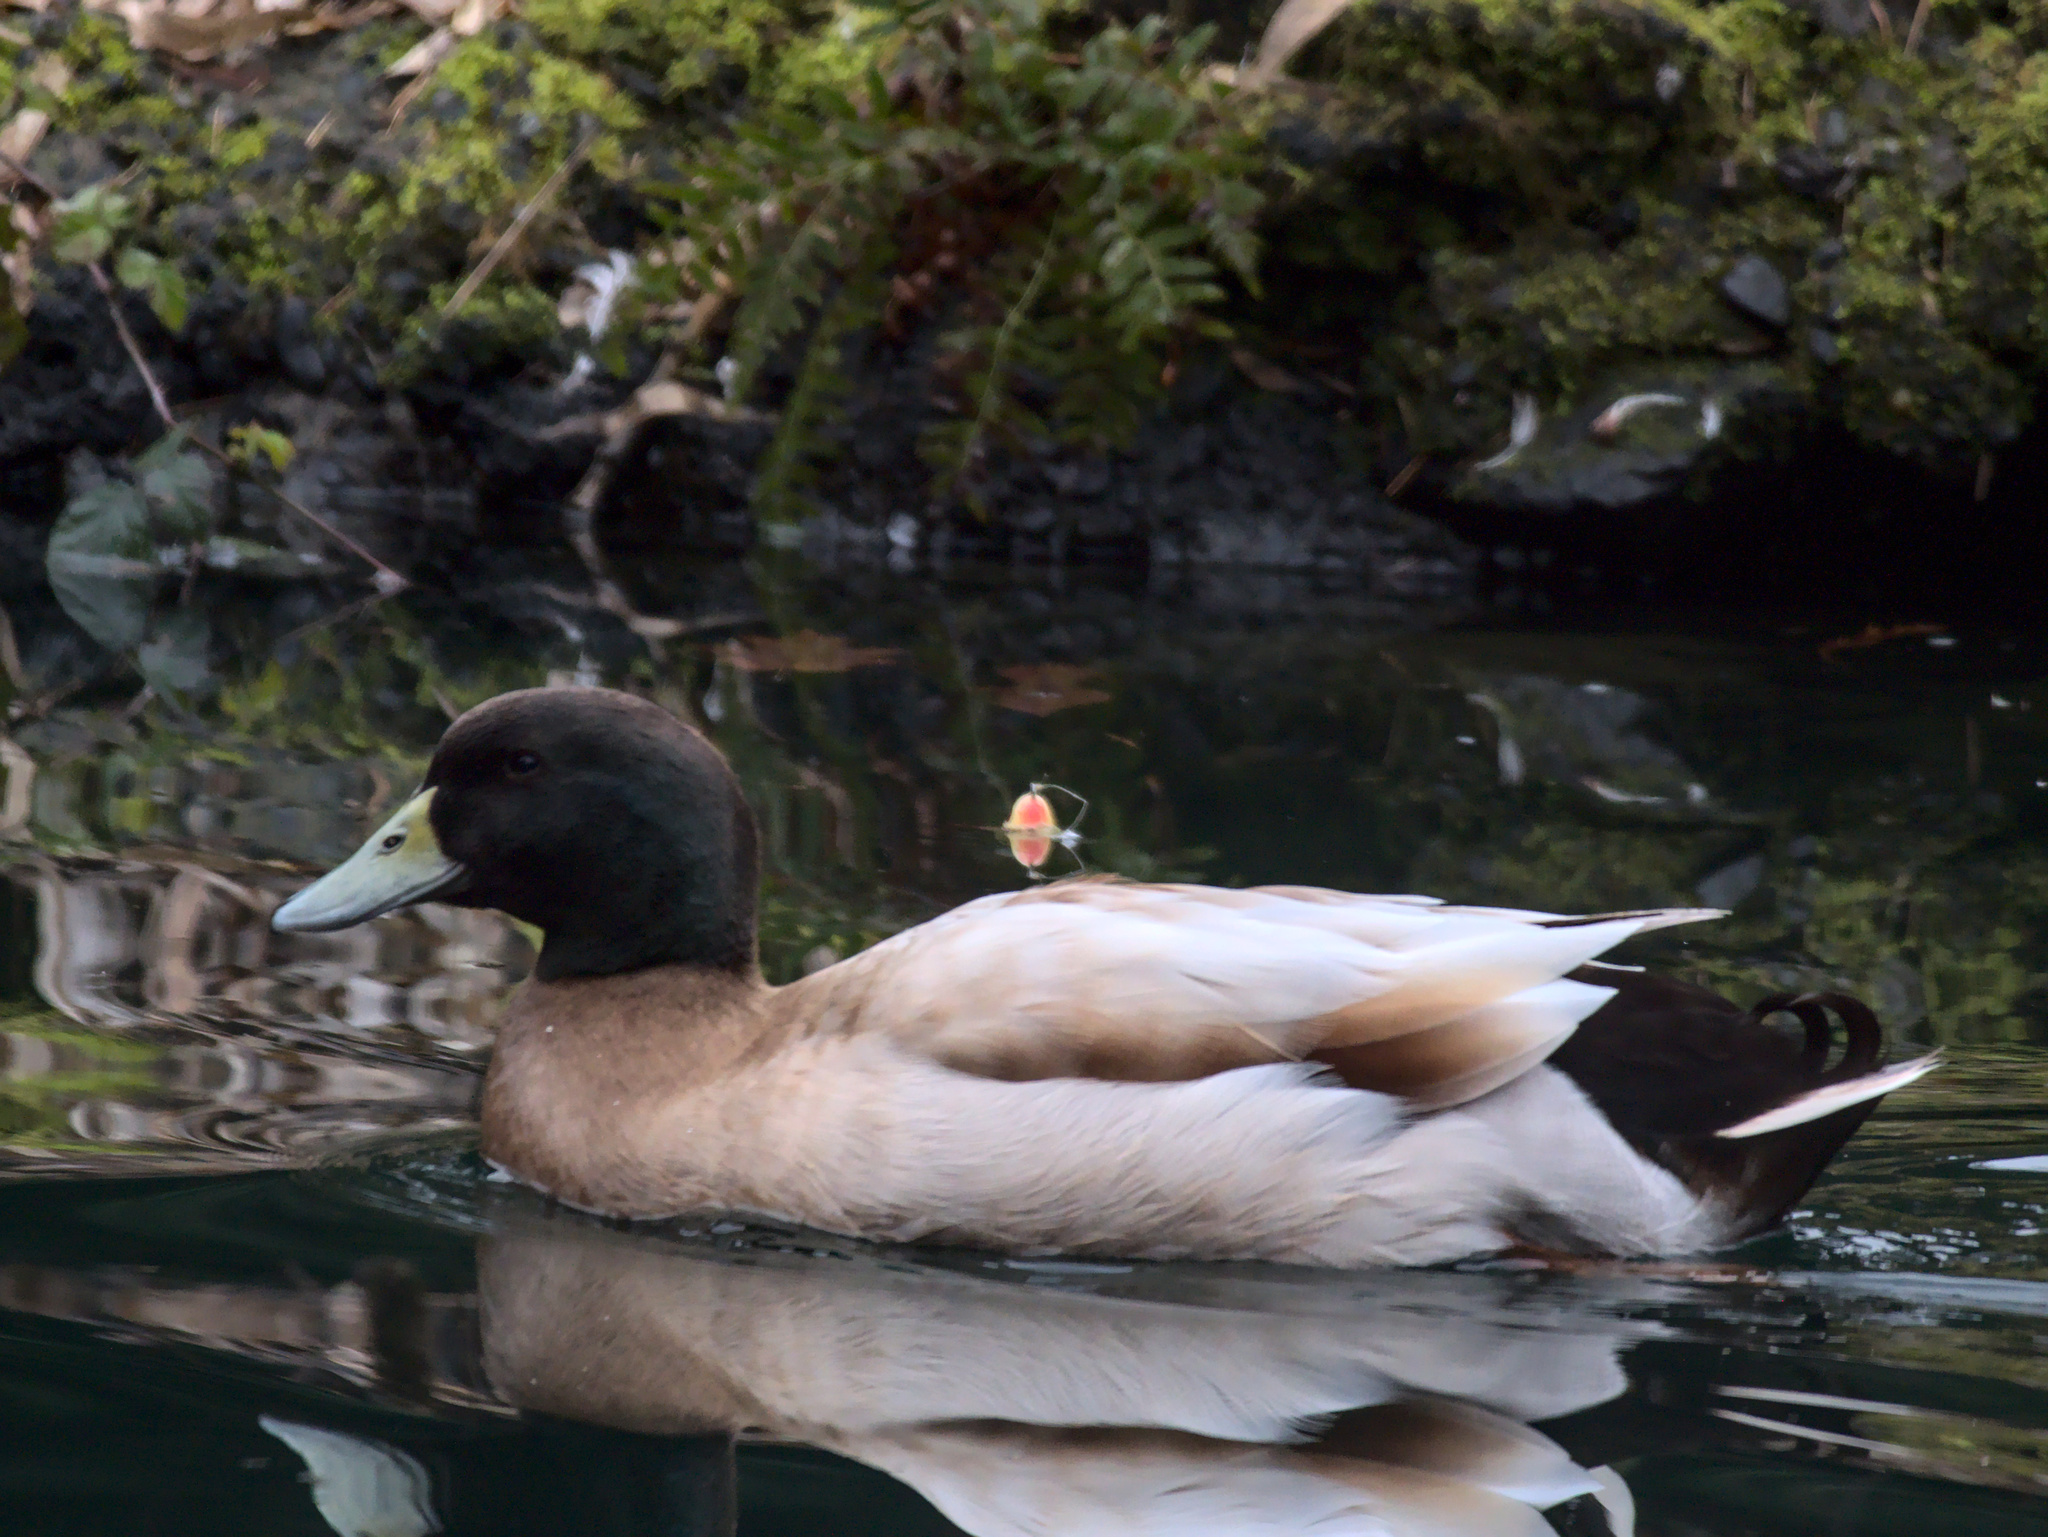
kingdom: Animalia
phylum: Chordata
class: Aves
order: Anseriformes
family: Anatidae
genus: Anas
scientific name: Anas platyrhynchos
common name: Mallard
